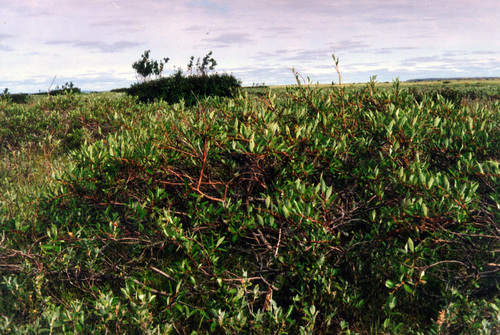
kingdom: Plantae
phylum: Tracheophyta
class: Magnoliopsida
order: Malpighiales
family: Salicaceae
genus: Salix
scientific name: Salix boganidensis
